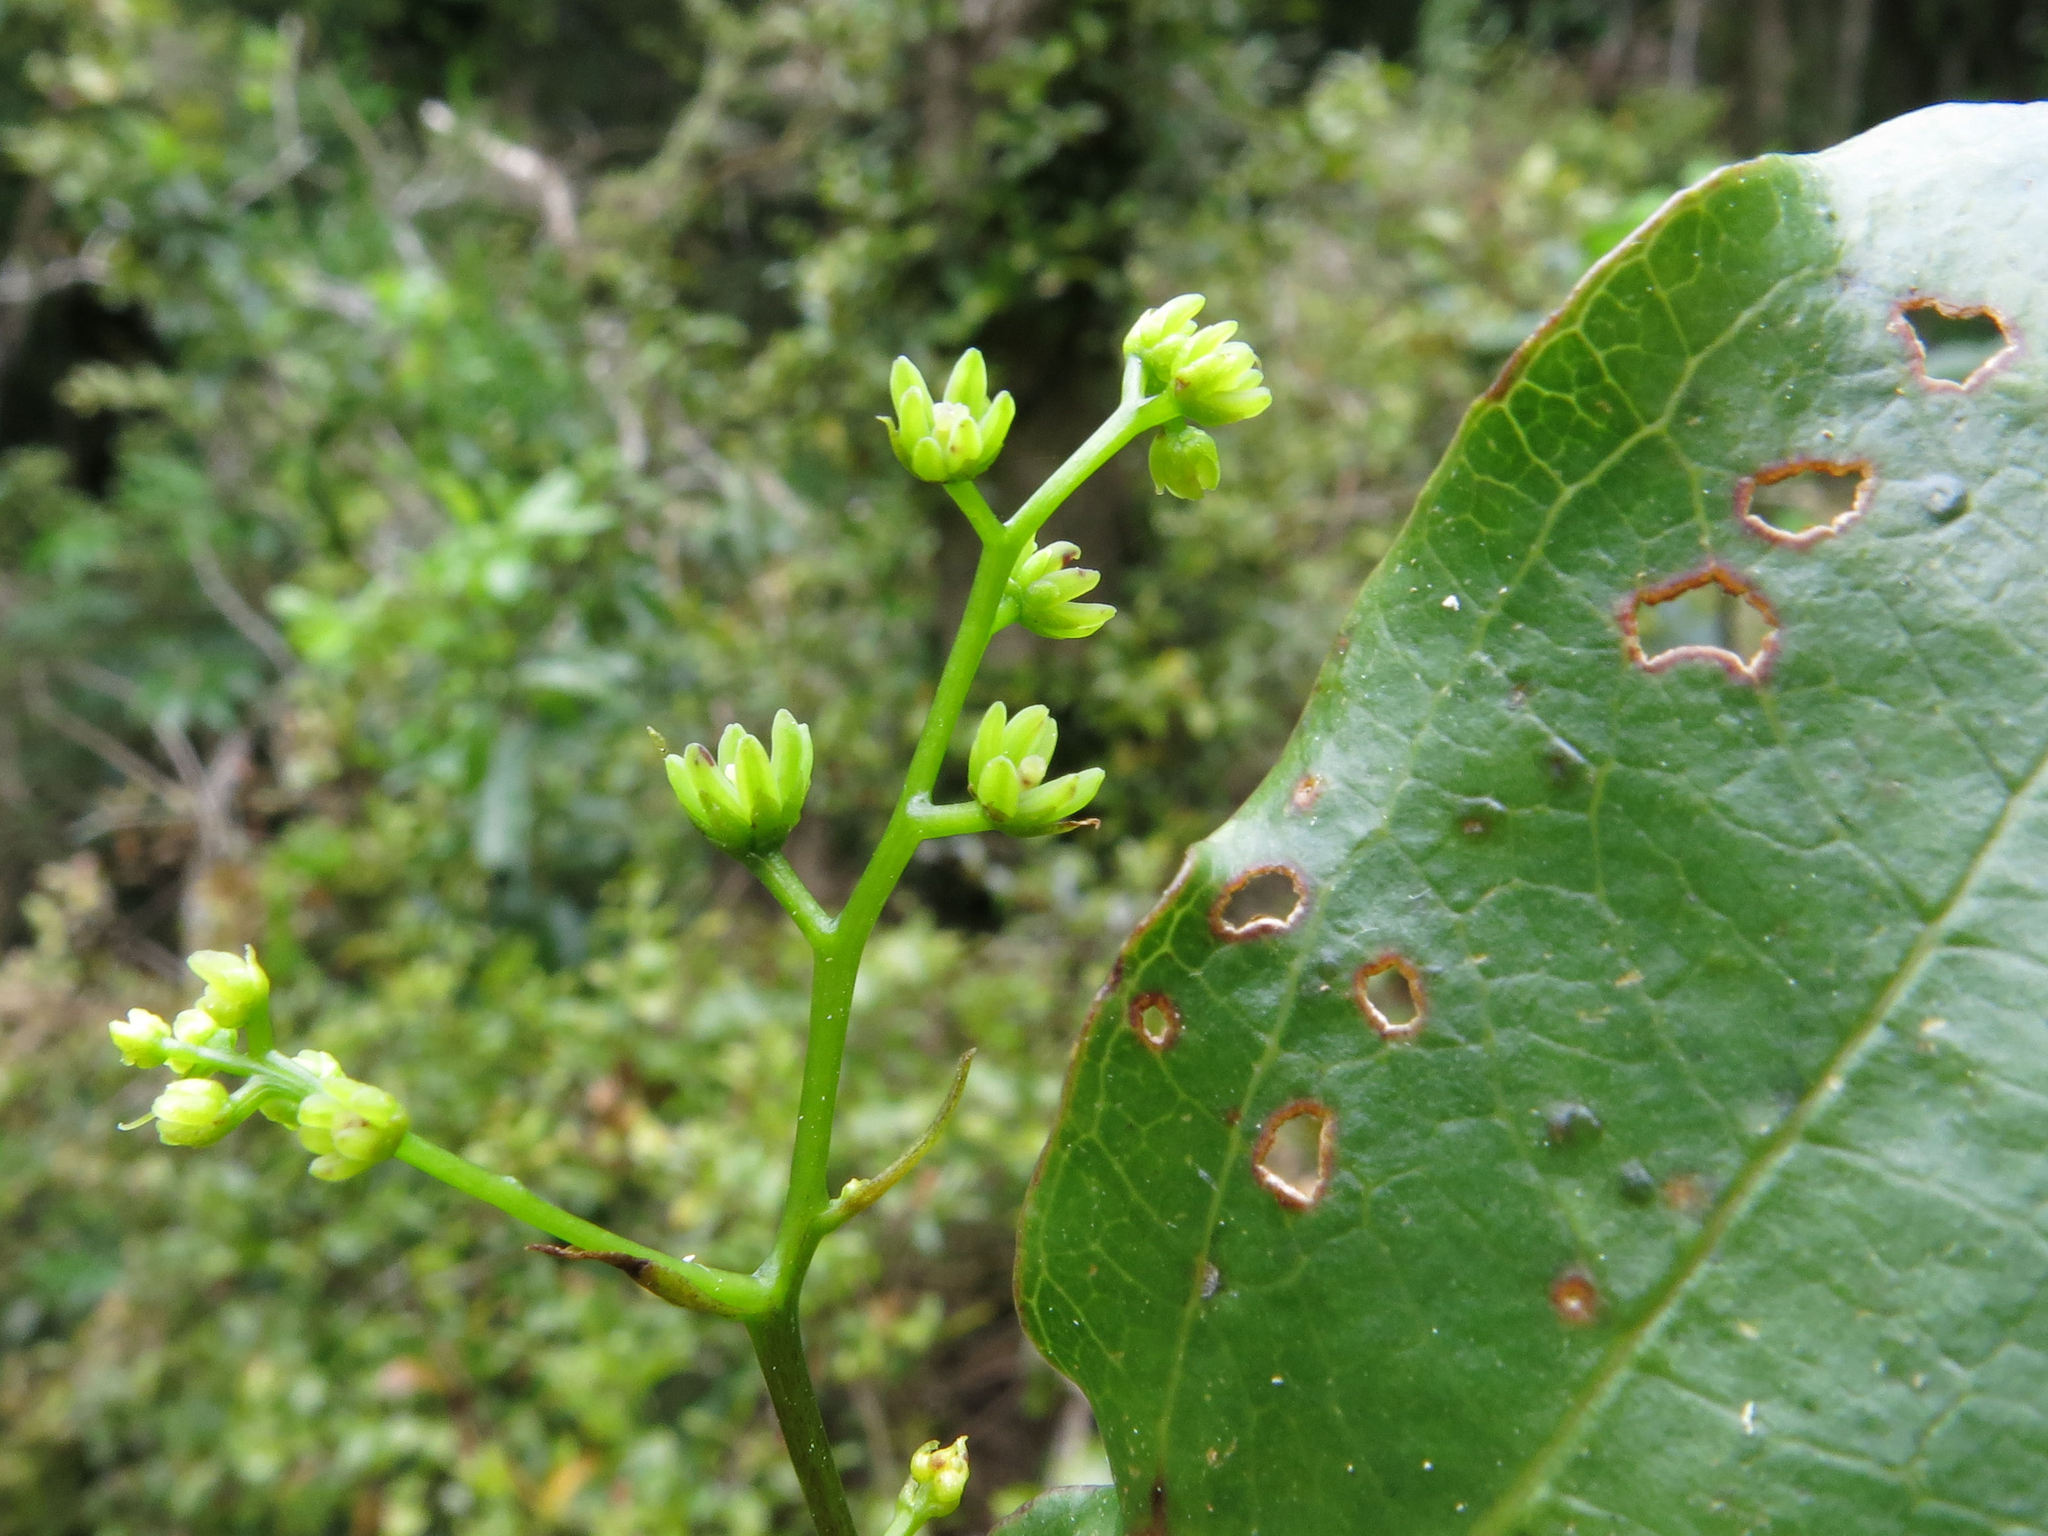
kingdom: Plantae
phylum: Tracheophyta
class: Liliopsida
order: Liliales
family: Ripogonaceae
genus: Ripogonum
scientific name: Ripogonum scandens
